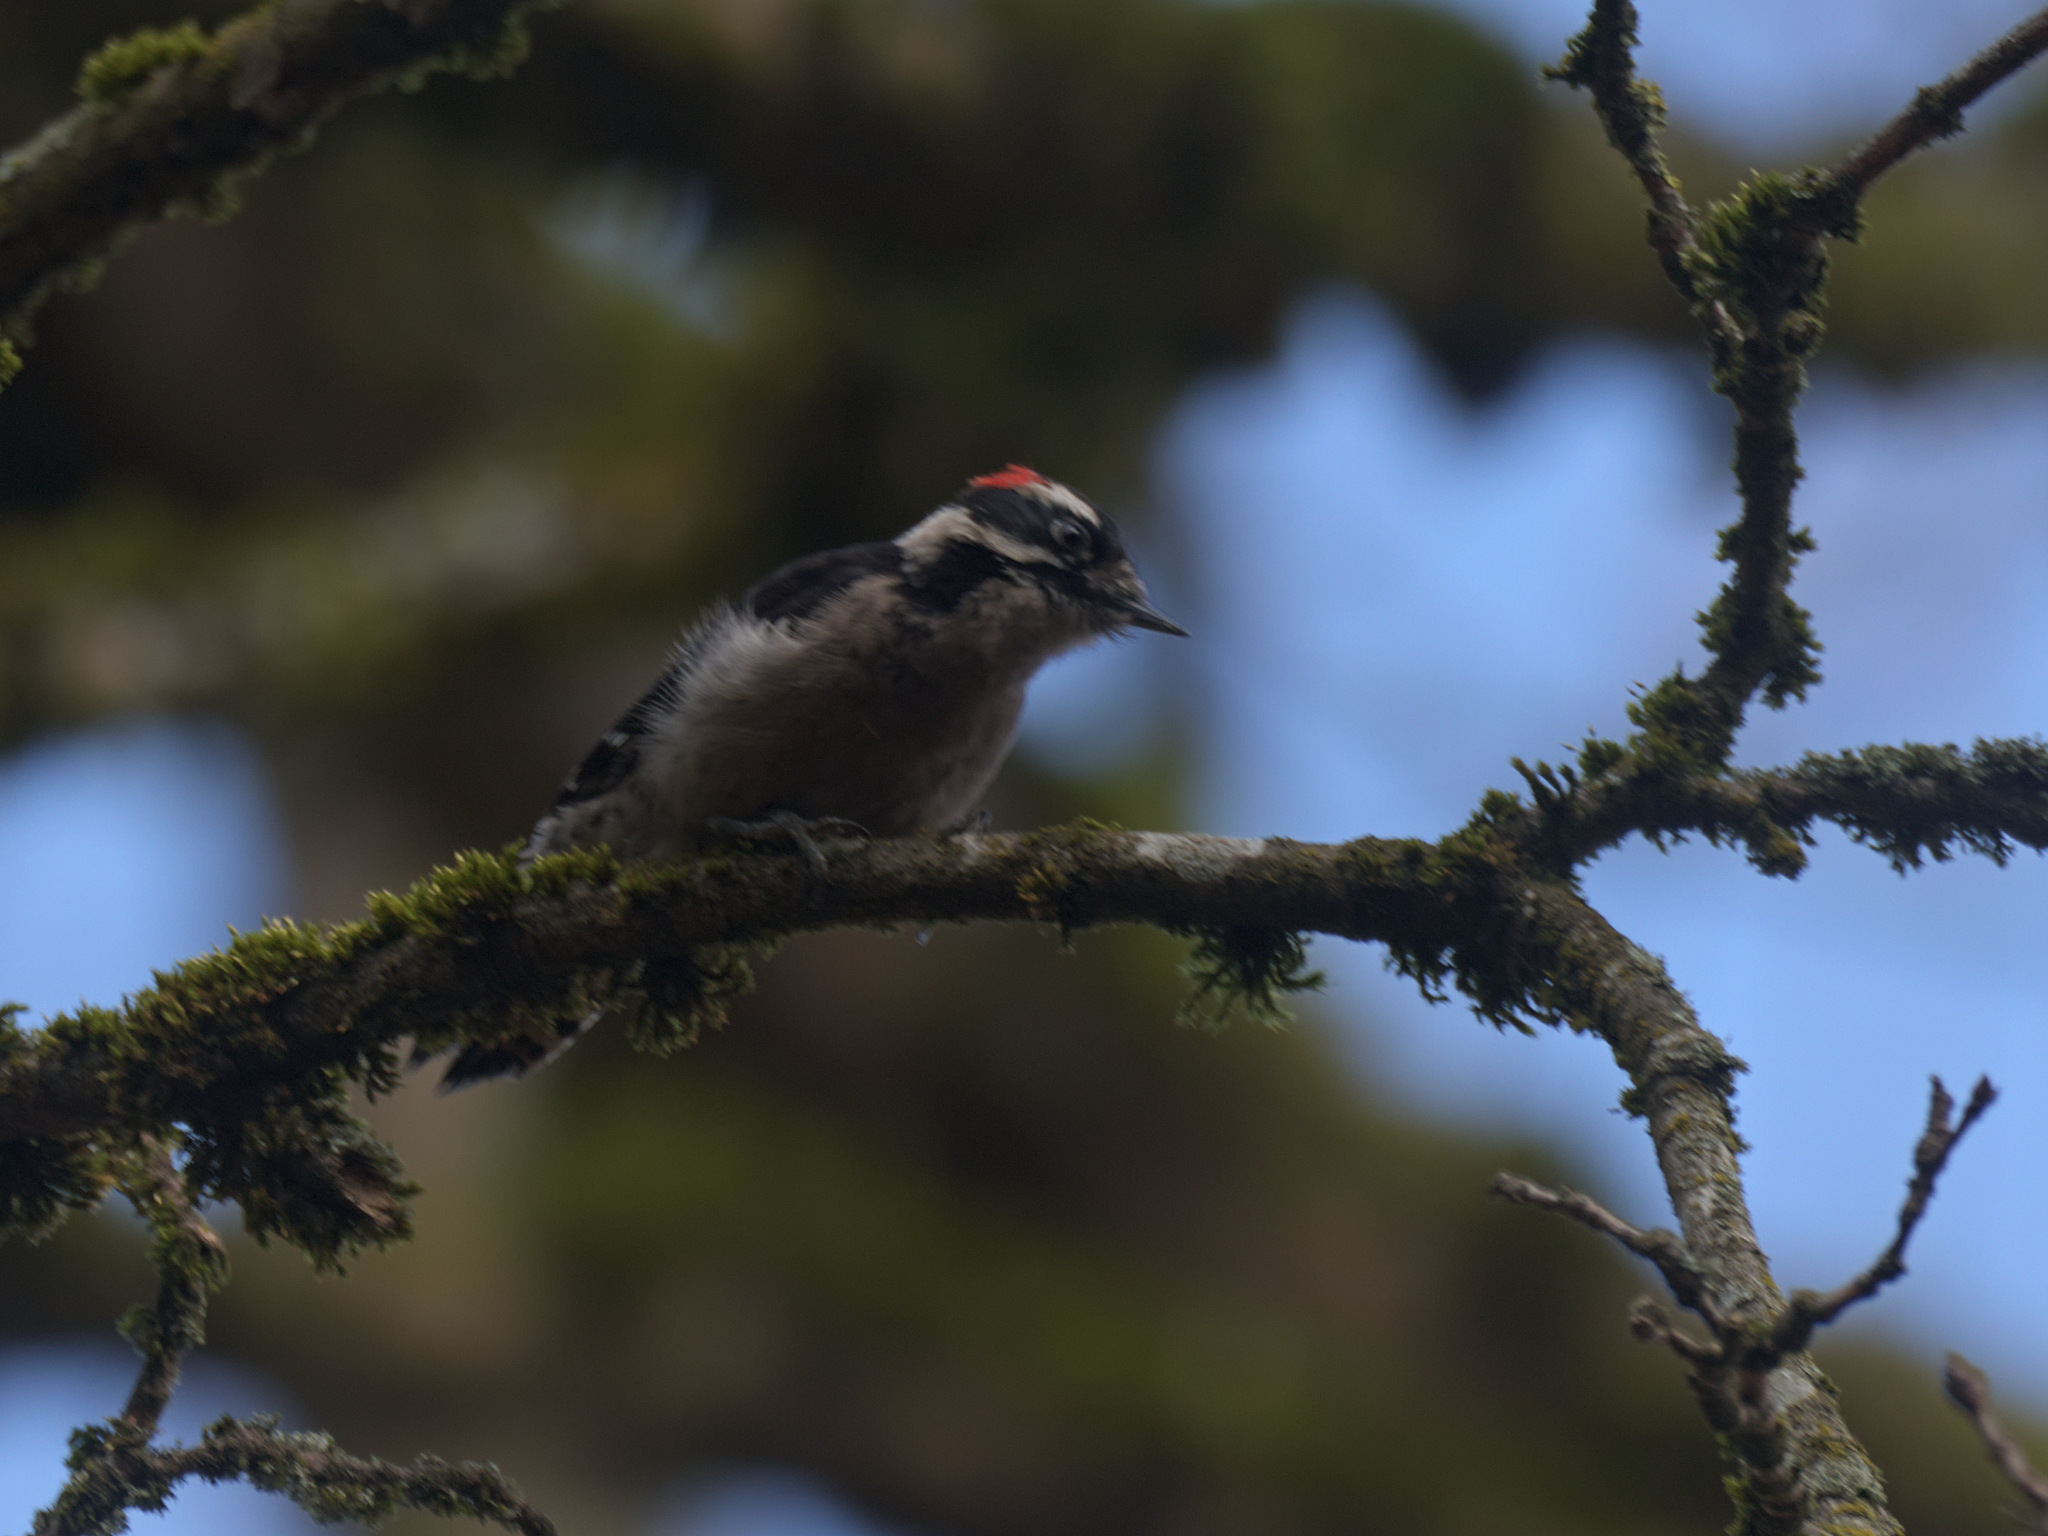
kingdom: Animalia
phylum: Chordata
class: Aves
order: Piciformes
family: Picidae
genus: Dryobates
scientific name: Dryobates pubescens
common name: Downy woodpecker
